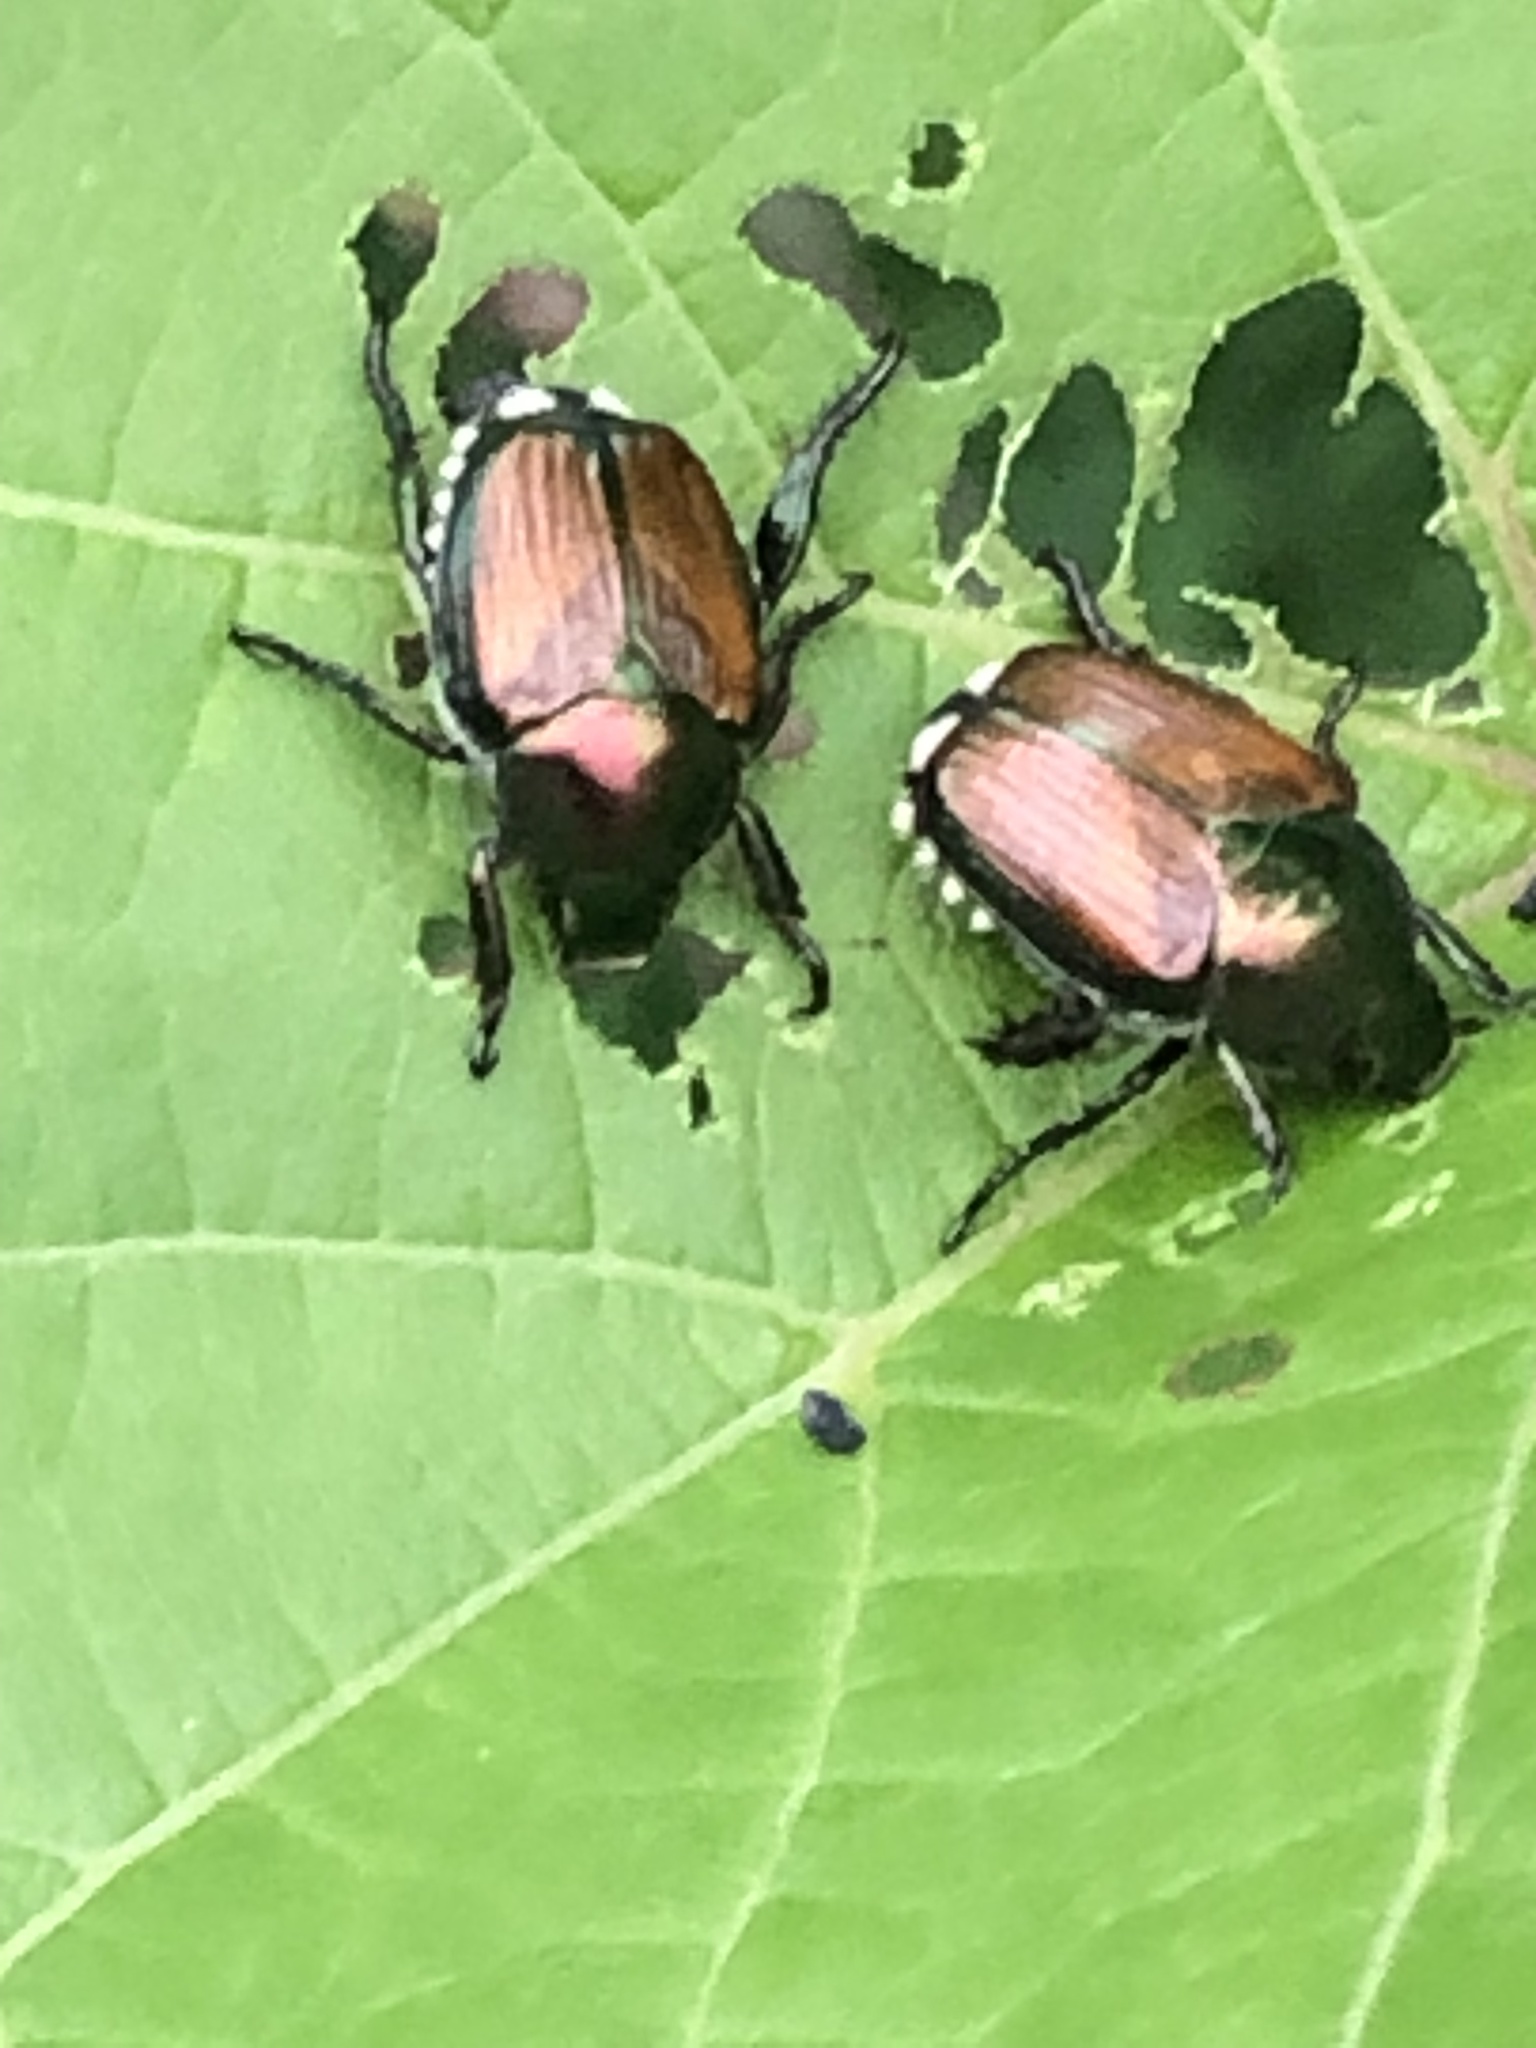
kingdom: Animalia
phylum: Arthropoda
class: Insecta
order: Coleoptera
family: Scarabaeidae
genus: Popillia
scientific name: Popillia japonica
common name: Japanese beetle
